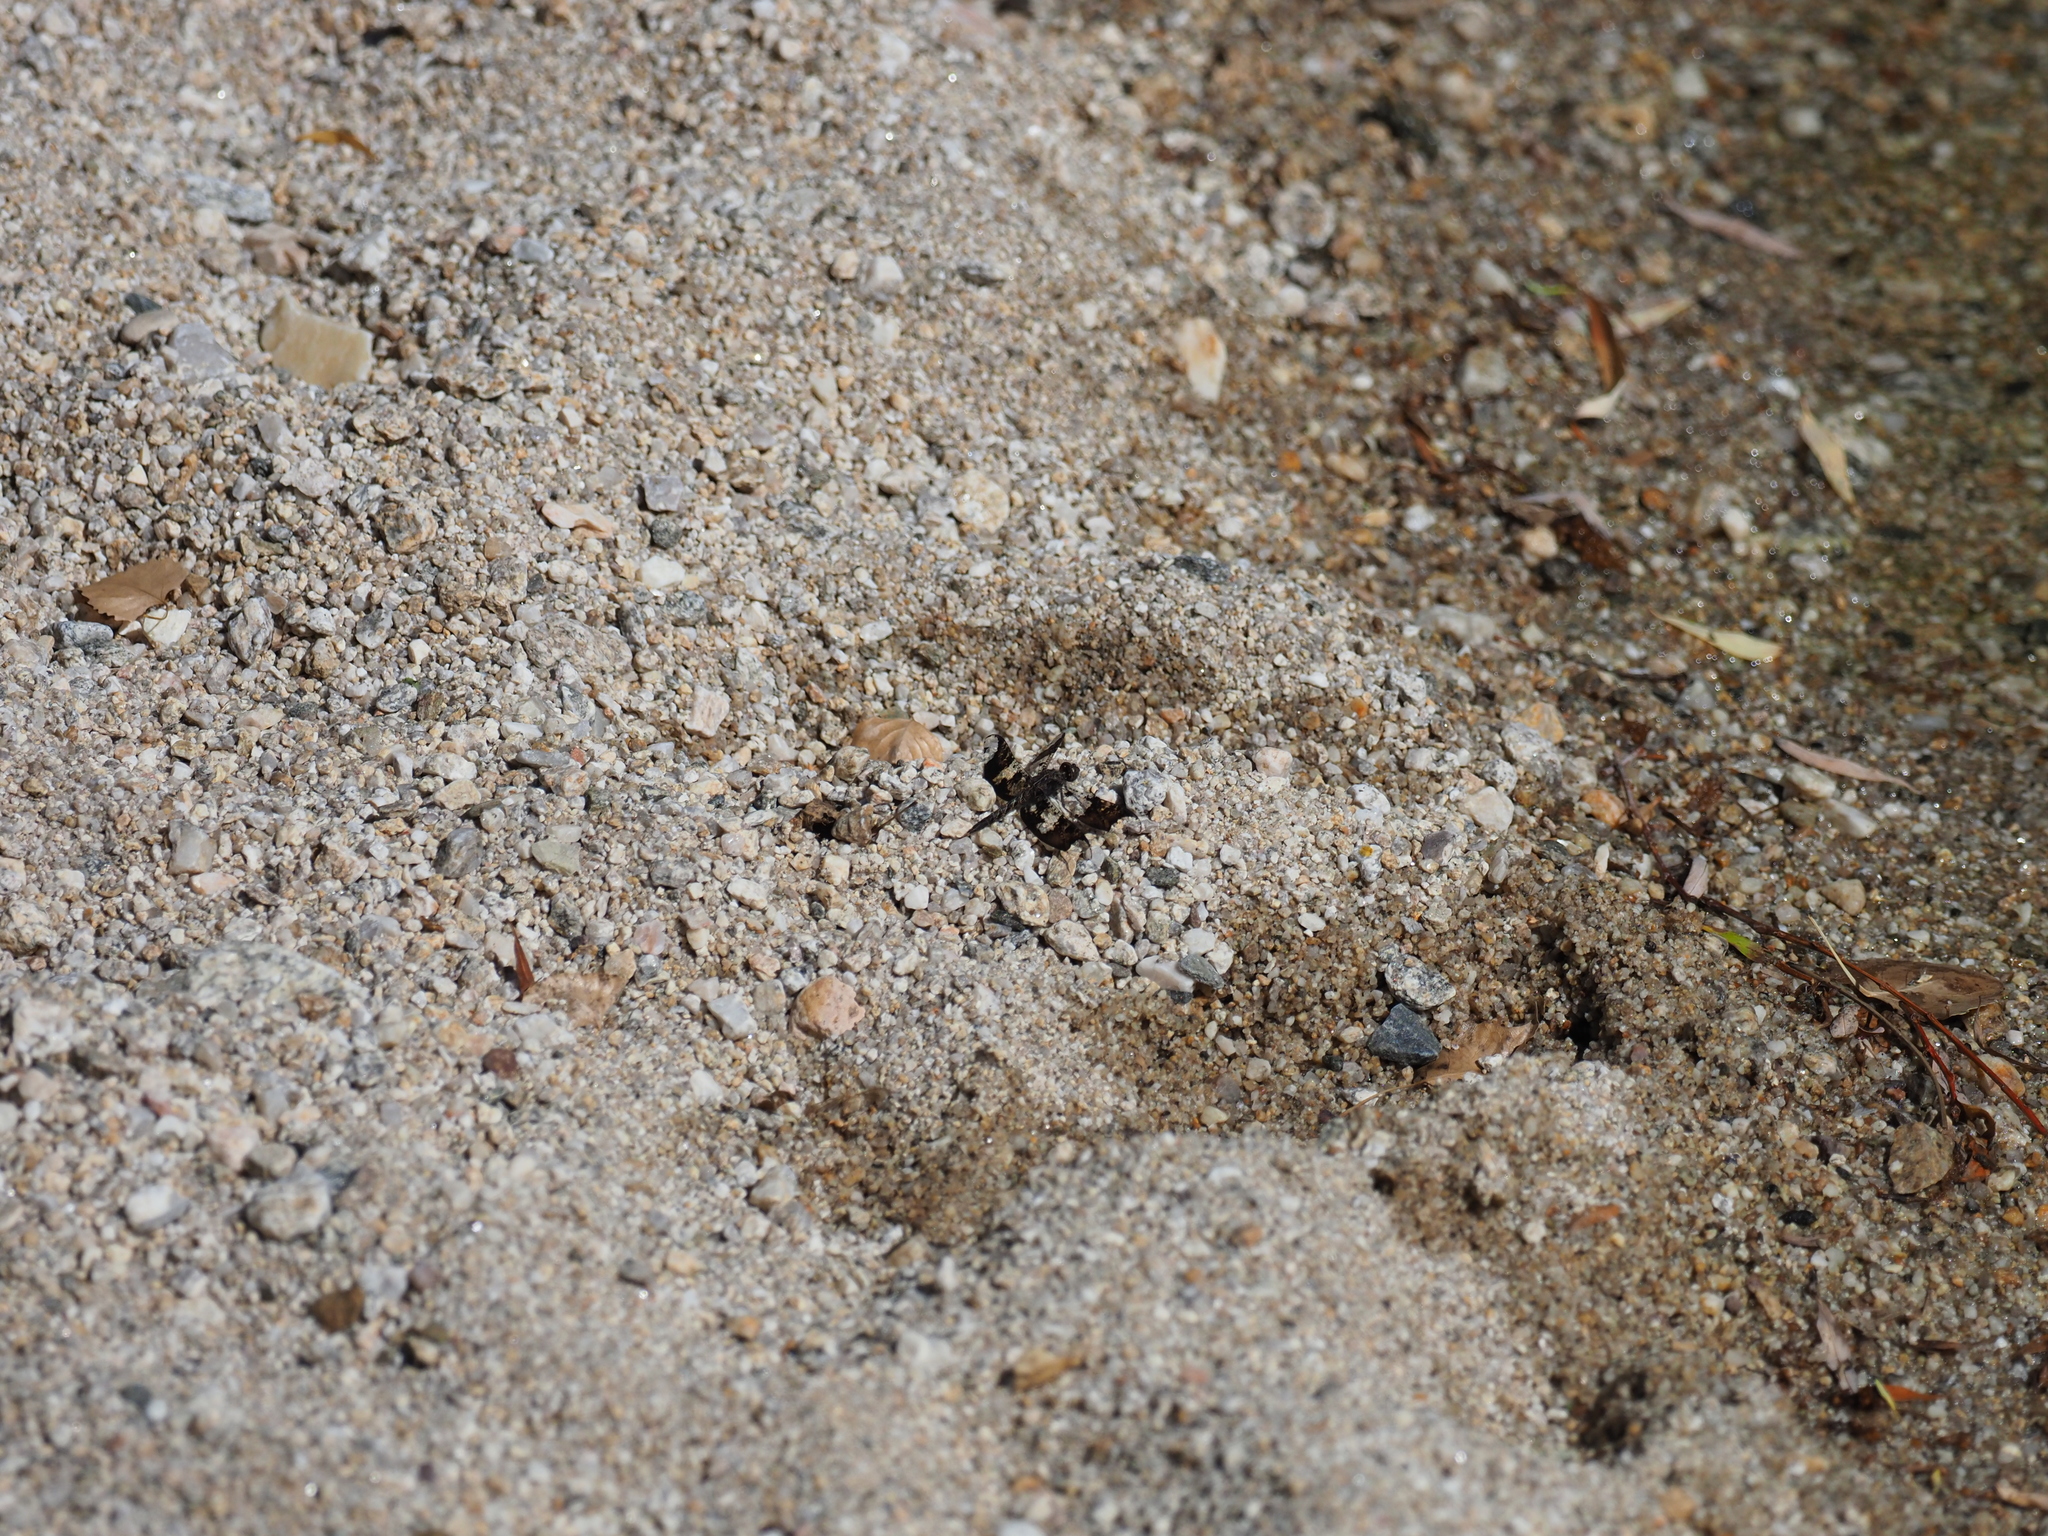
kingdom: Animalia
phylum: Arthropoda
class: Insecta
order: Odonata
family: Libellulidae
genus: Pseudoleon
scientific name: Pseudoleon superbus
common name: Filigree skimmer
